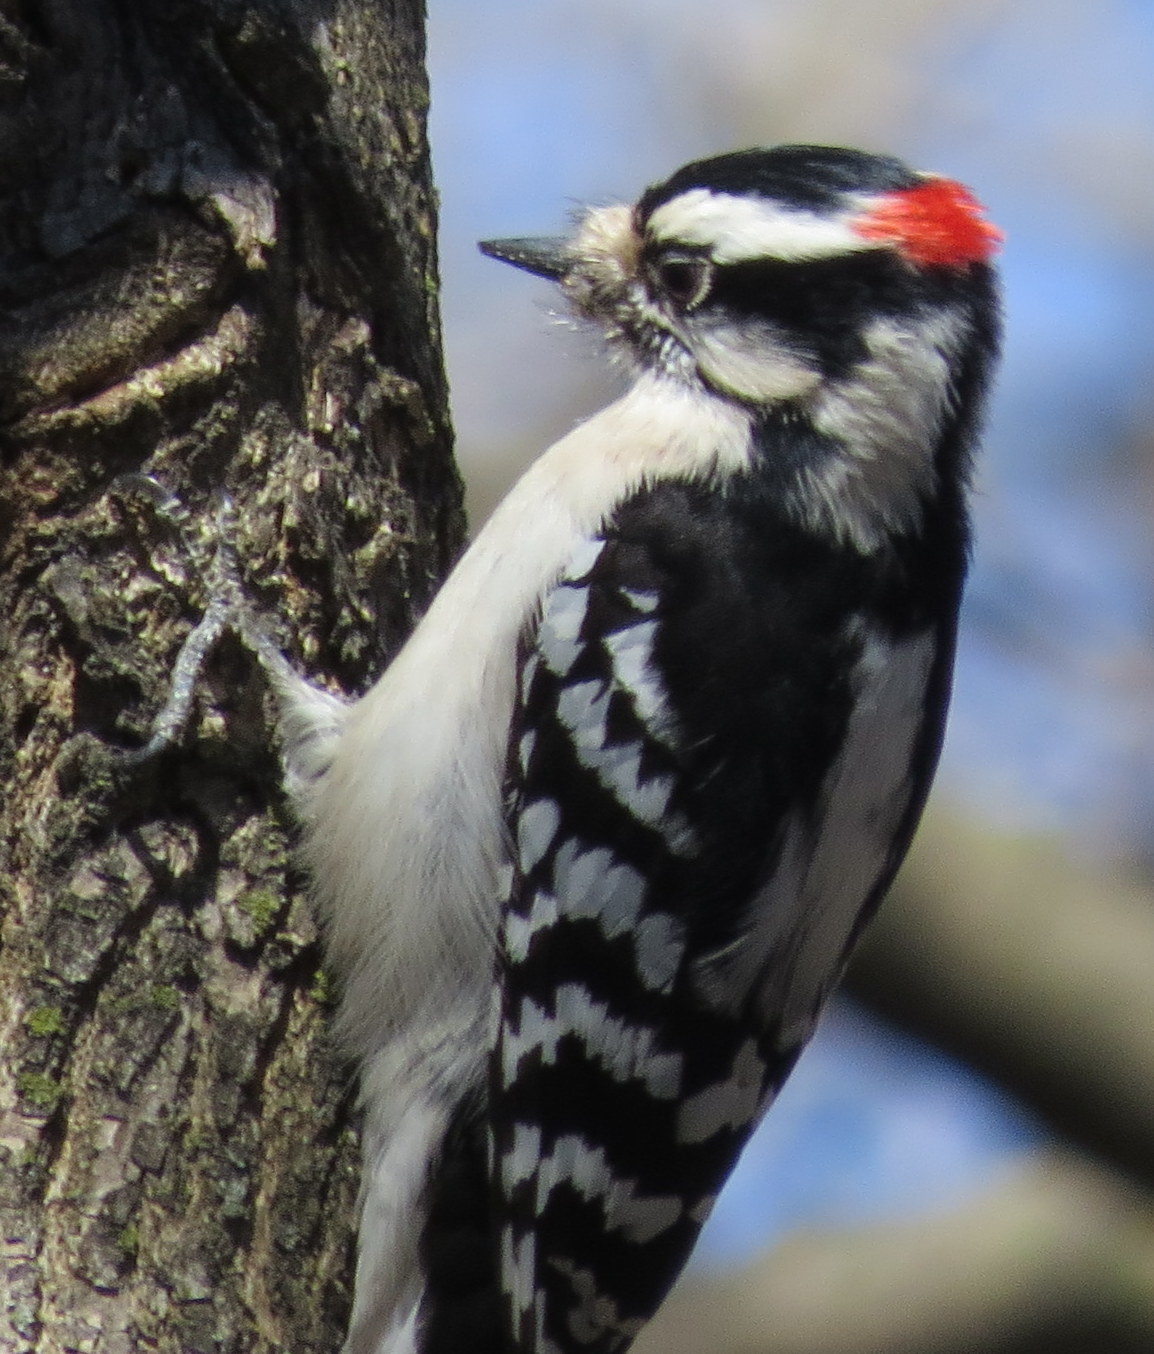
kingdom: Animalia
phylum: Chordata
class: Aves
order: Piciformes
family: Picidae
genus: Dryobates
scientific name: Dryobates pubescens
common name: Downy woodpecker
